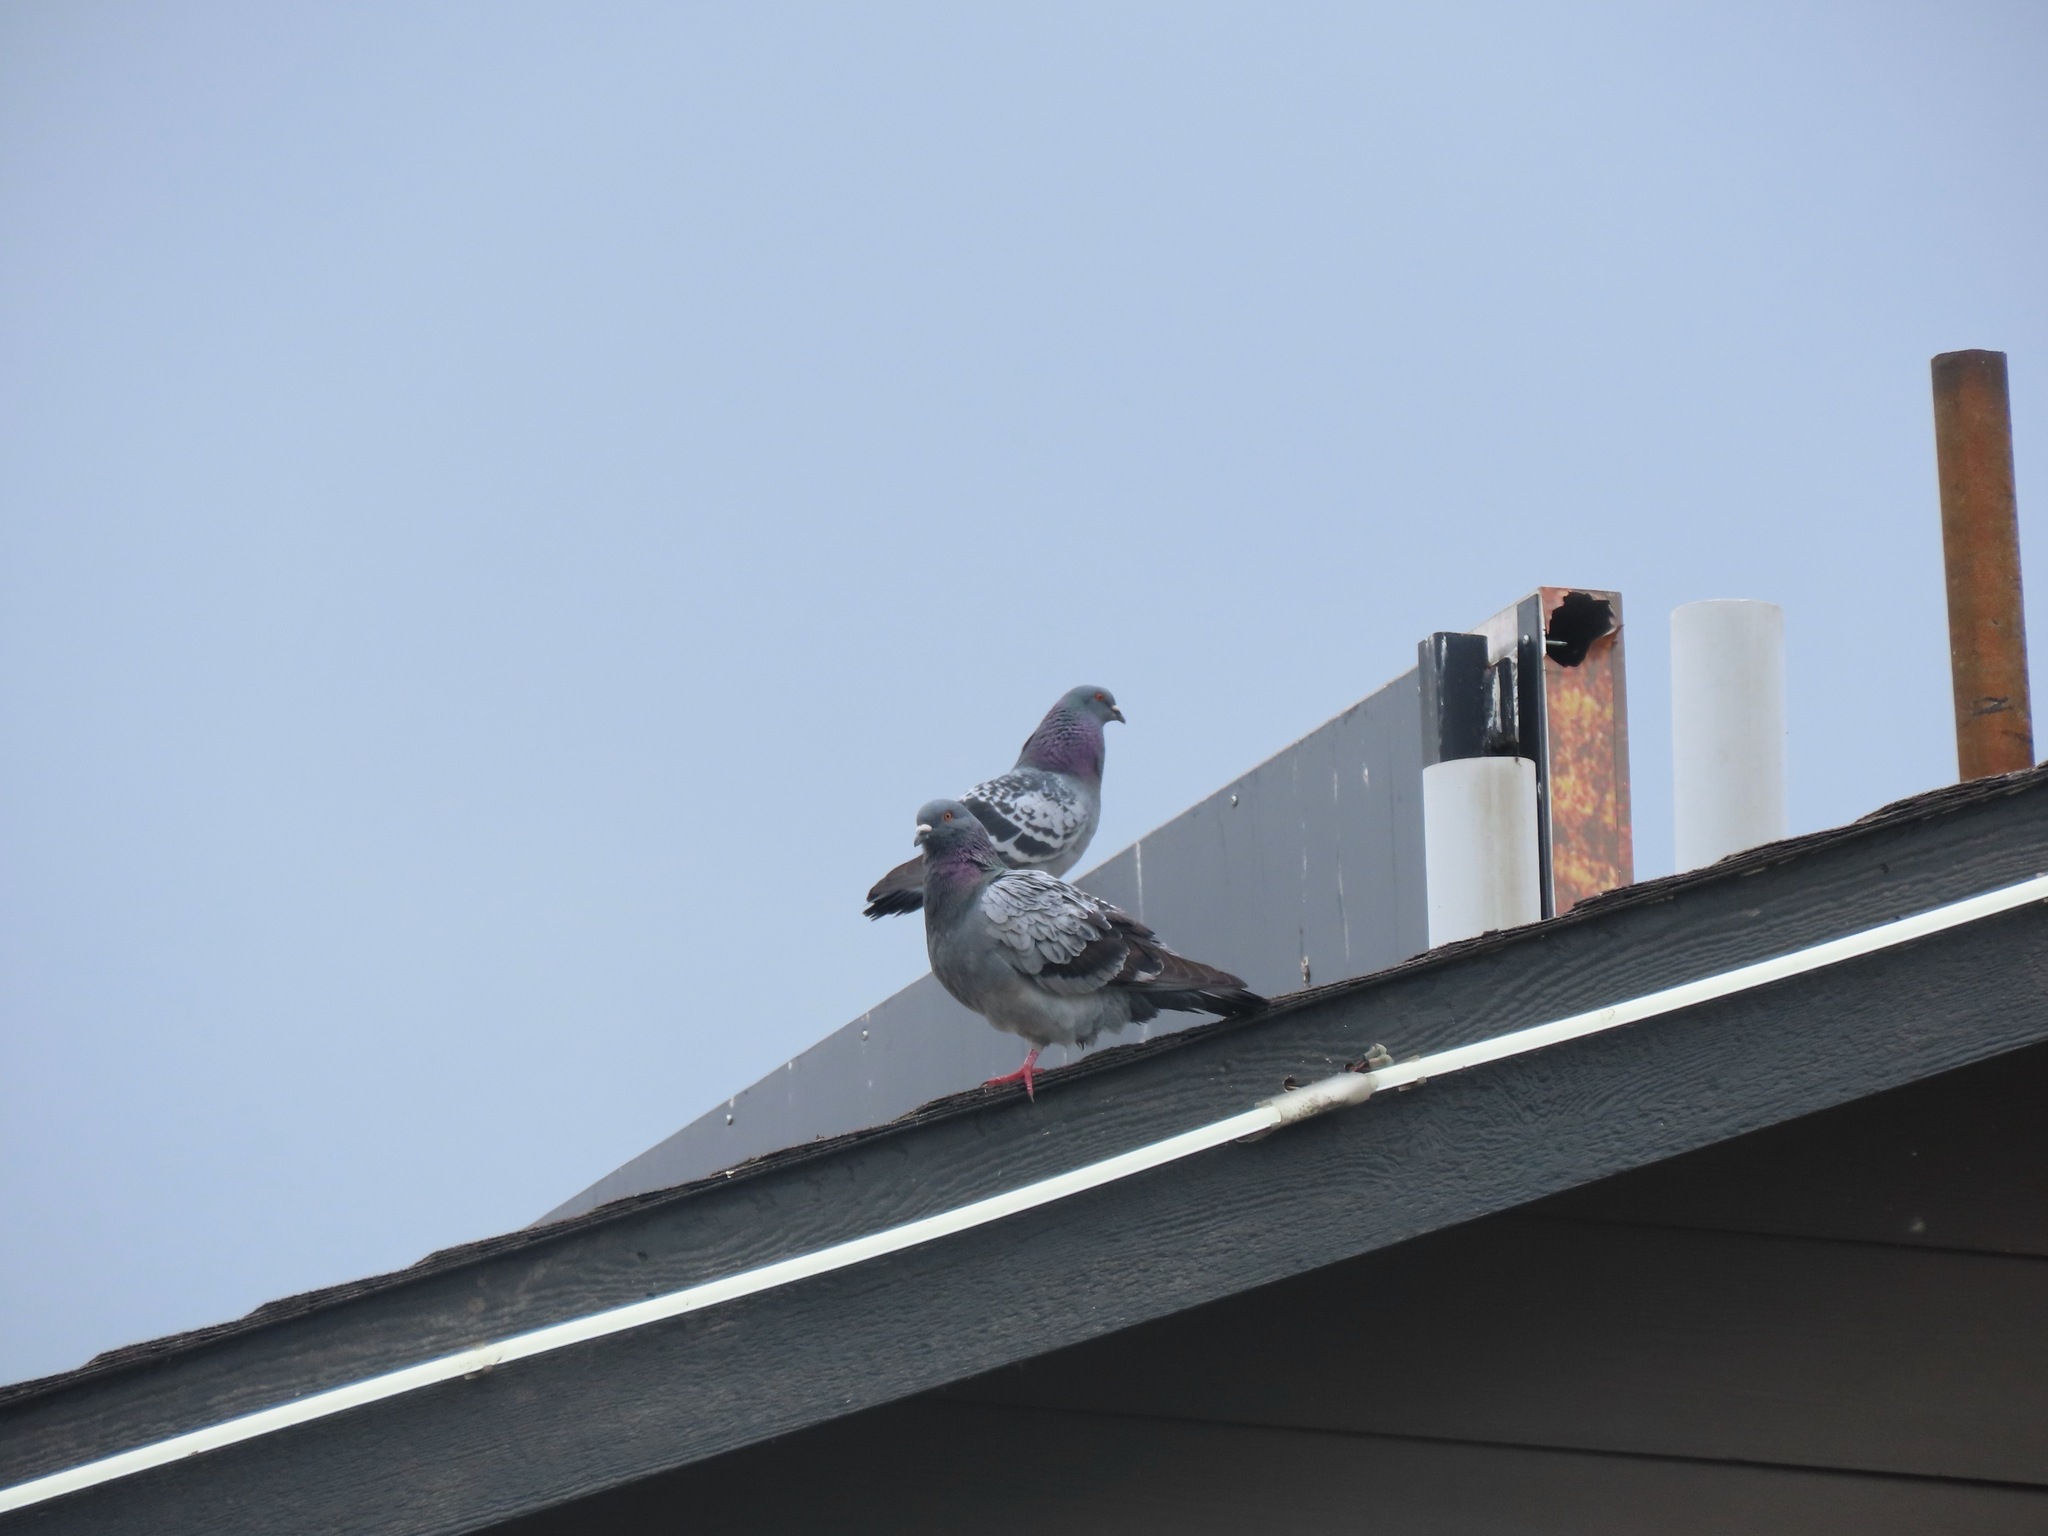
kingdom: Animalia
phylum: Chordata
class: Aves
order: Columbiformes
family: Columbidae
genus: Columba
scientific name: Columba livia
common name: Rock pigeon
